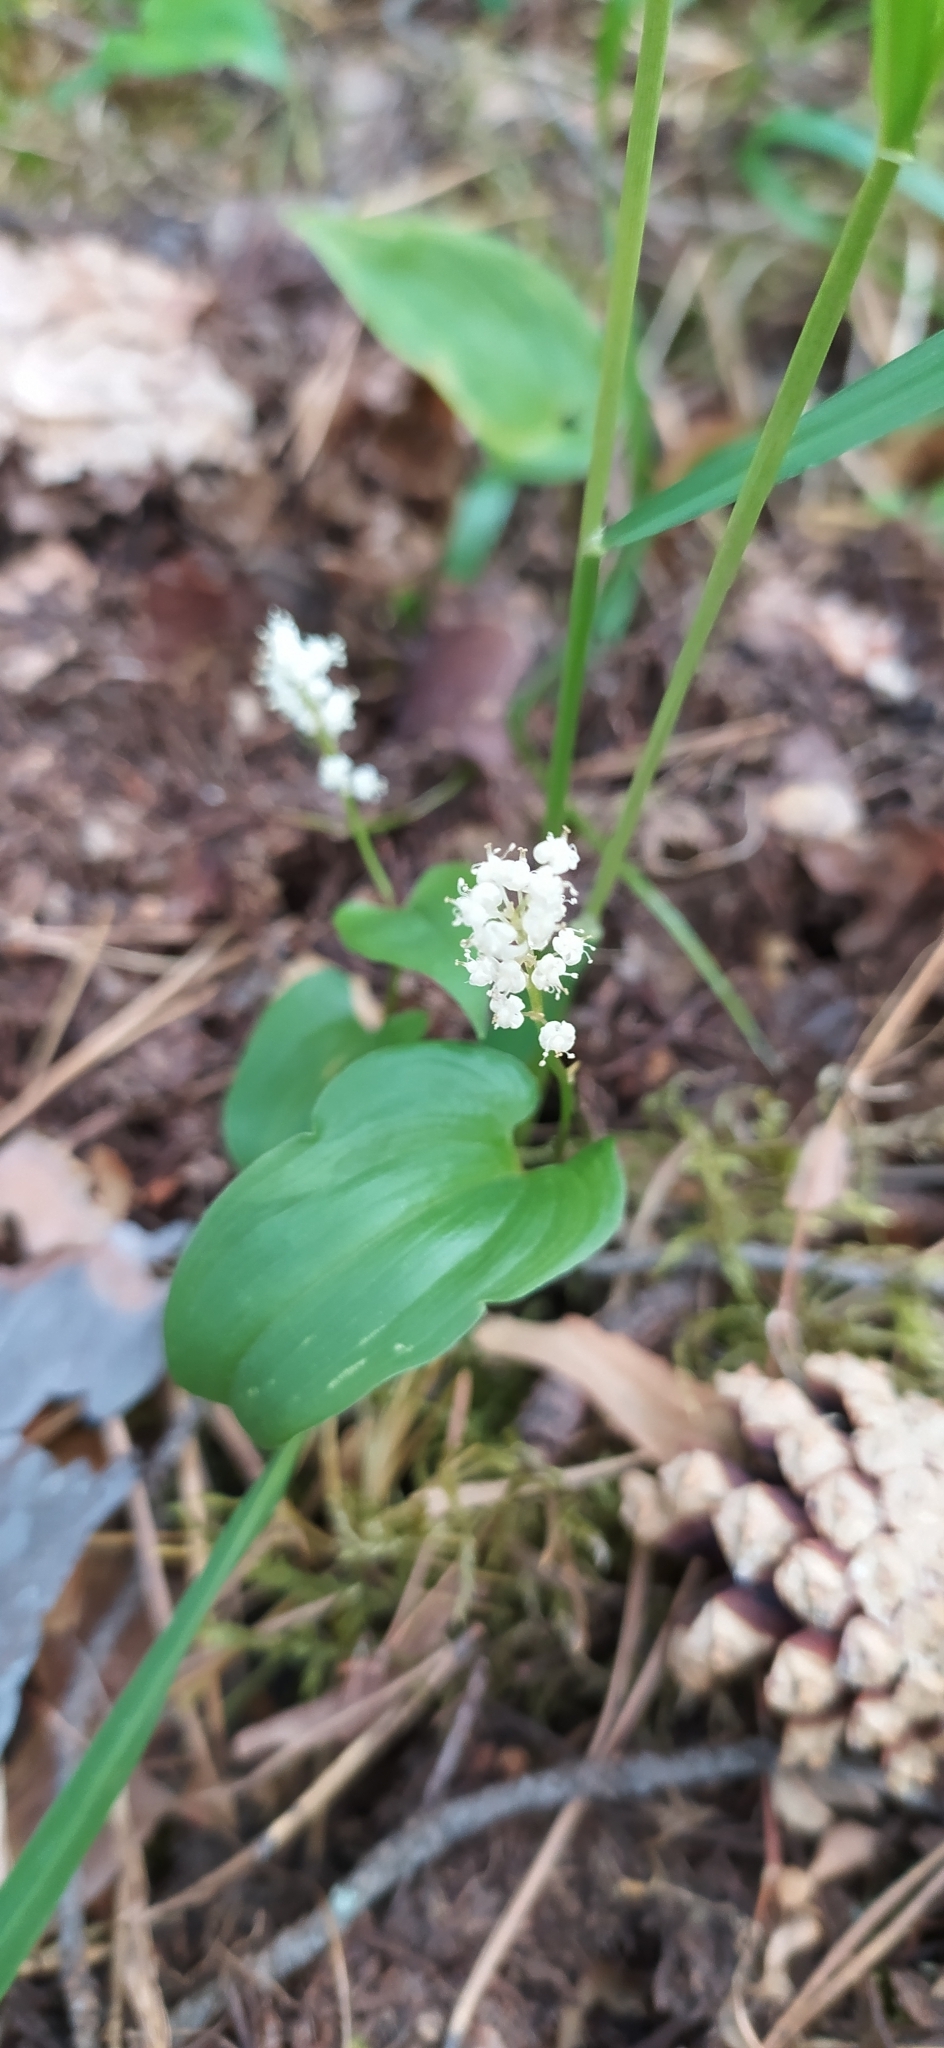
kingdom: Plantae
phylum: Tracheophyta
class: Liliopsida
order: Asparagales
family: Asparagaceae
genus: Maianthemum
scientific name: Maianthemum bifolium
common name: May lily
